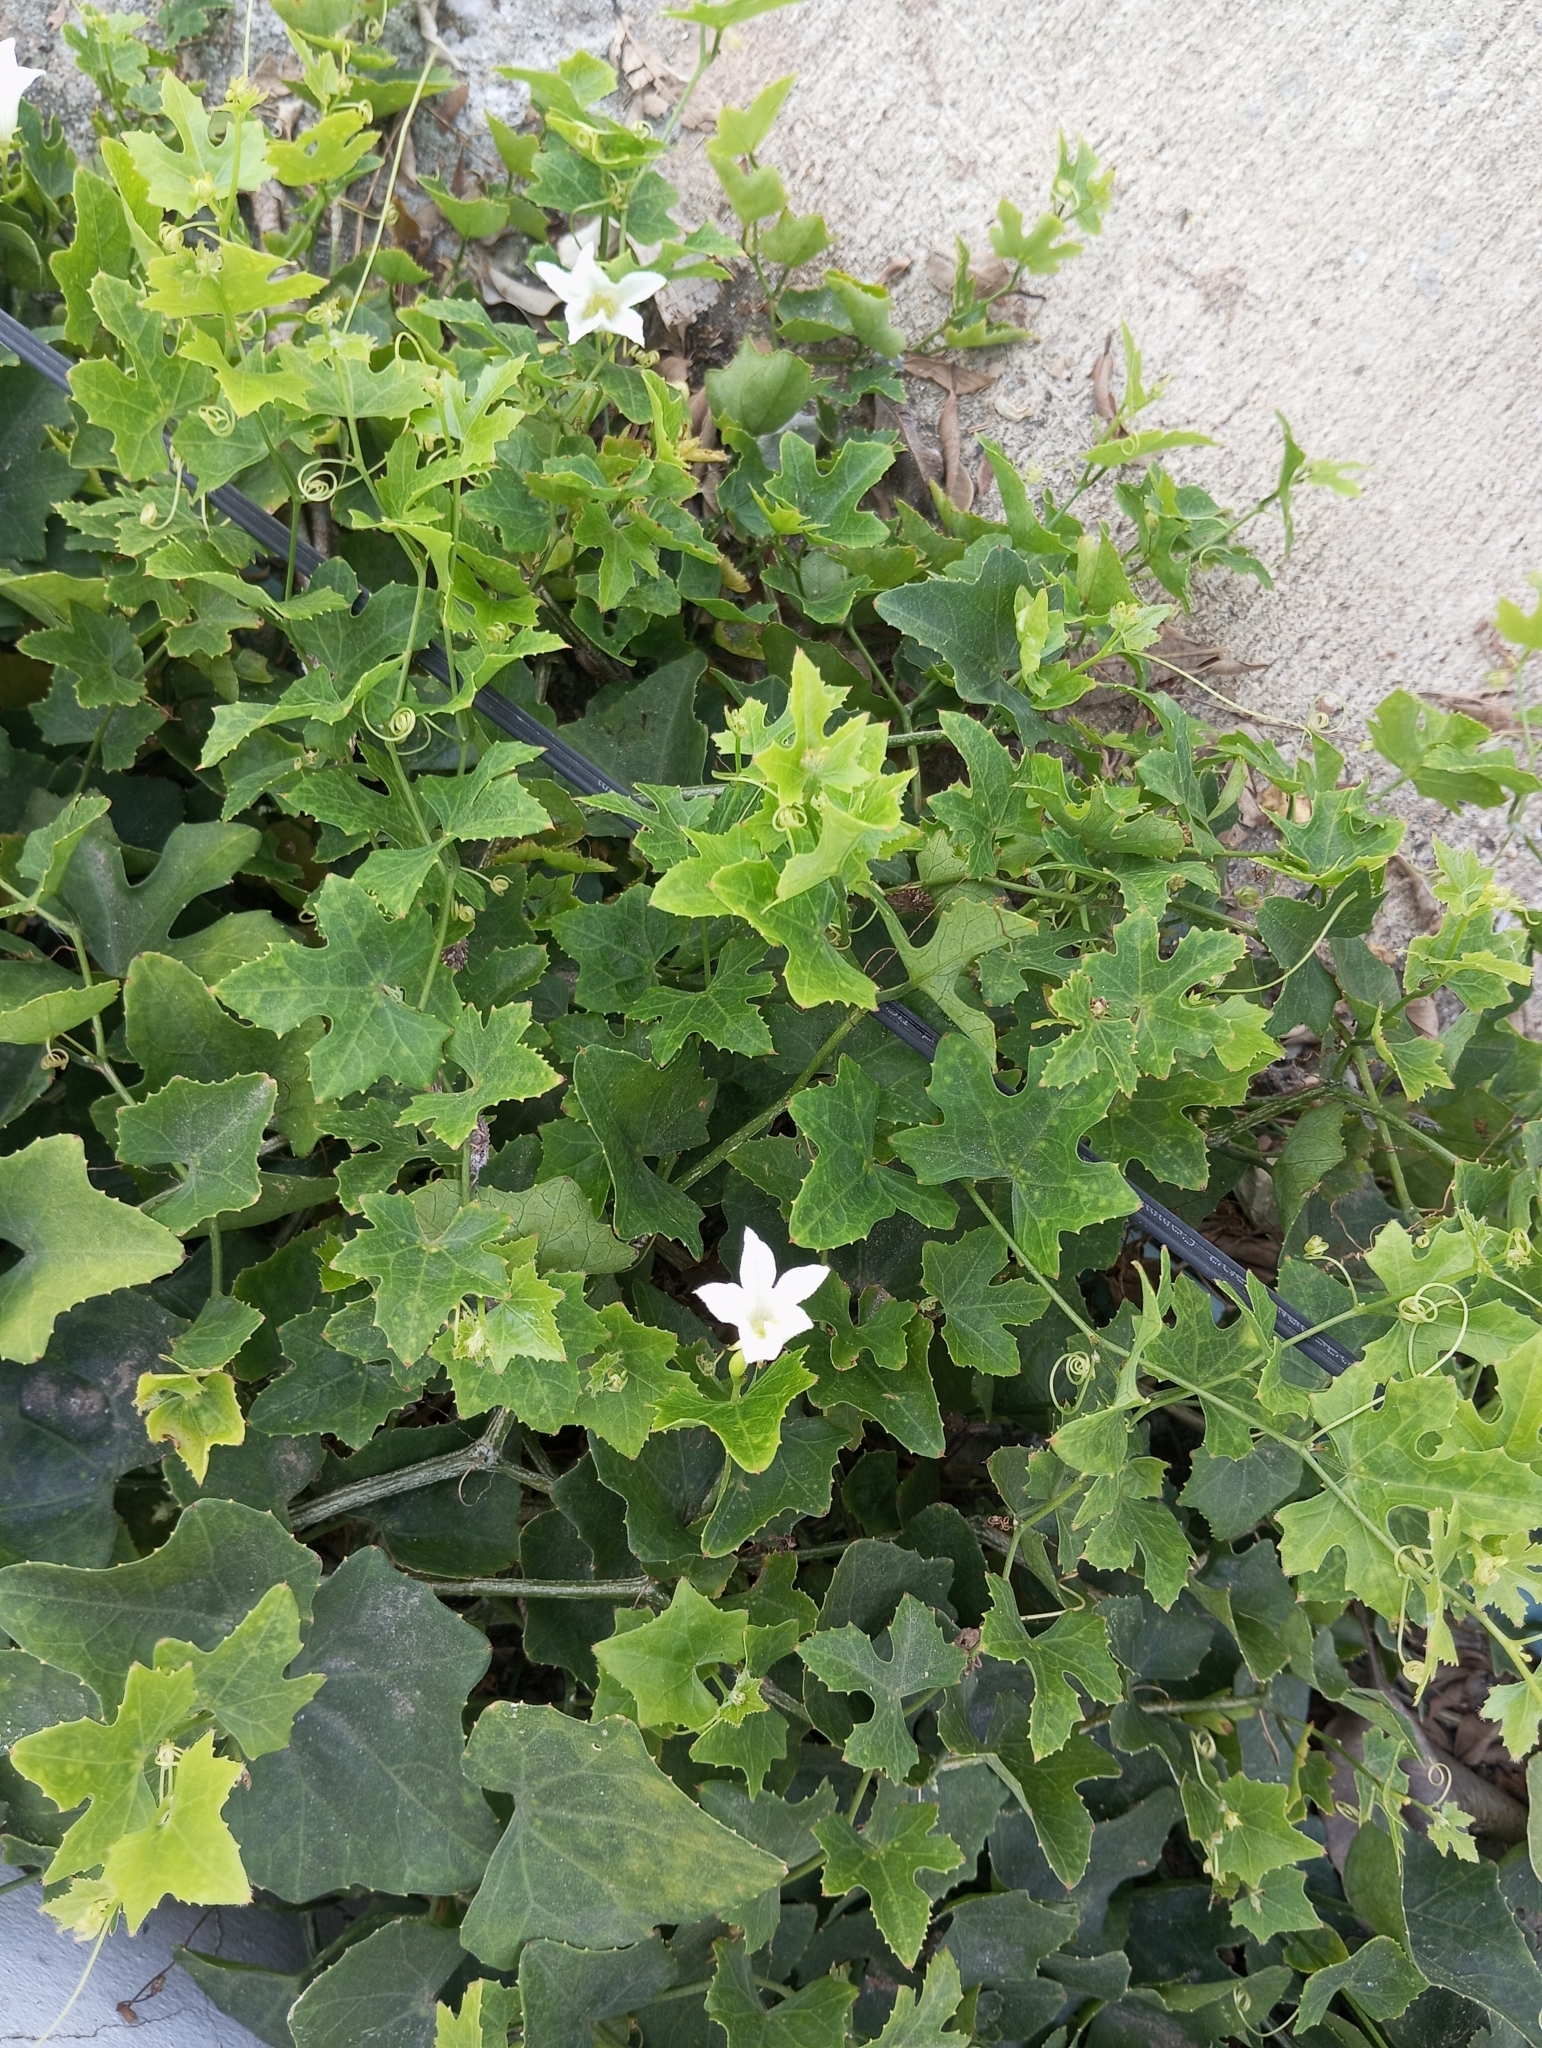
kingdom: Plantae
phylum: Tracheophyta
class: Magnoliopsida
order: Cucurbitales
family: Cucurbitaceae
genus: Coccinia
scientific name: Coccinia grandis
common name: Ivy gourd
